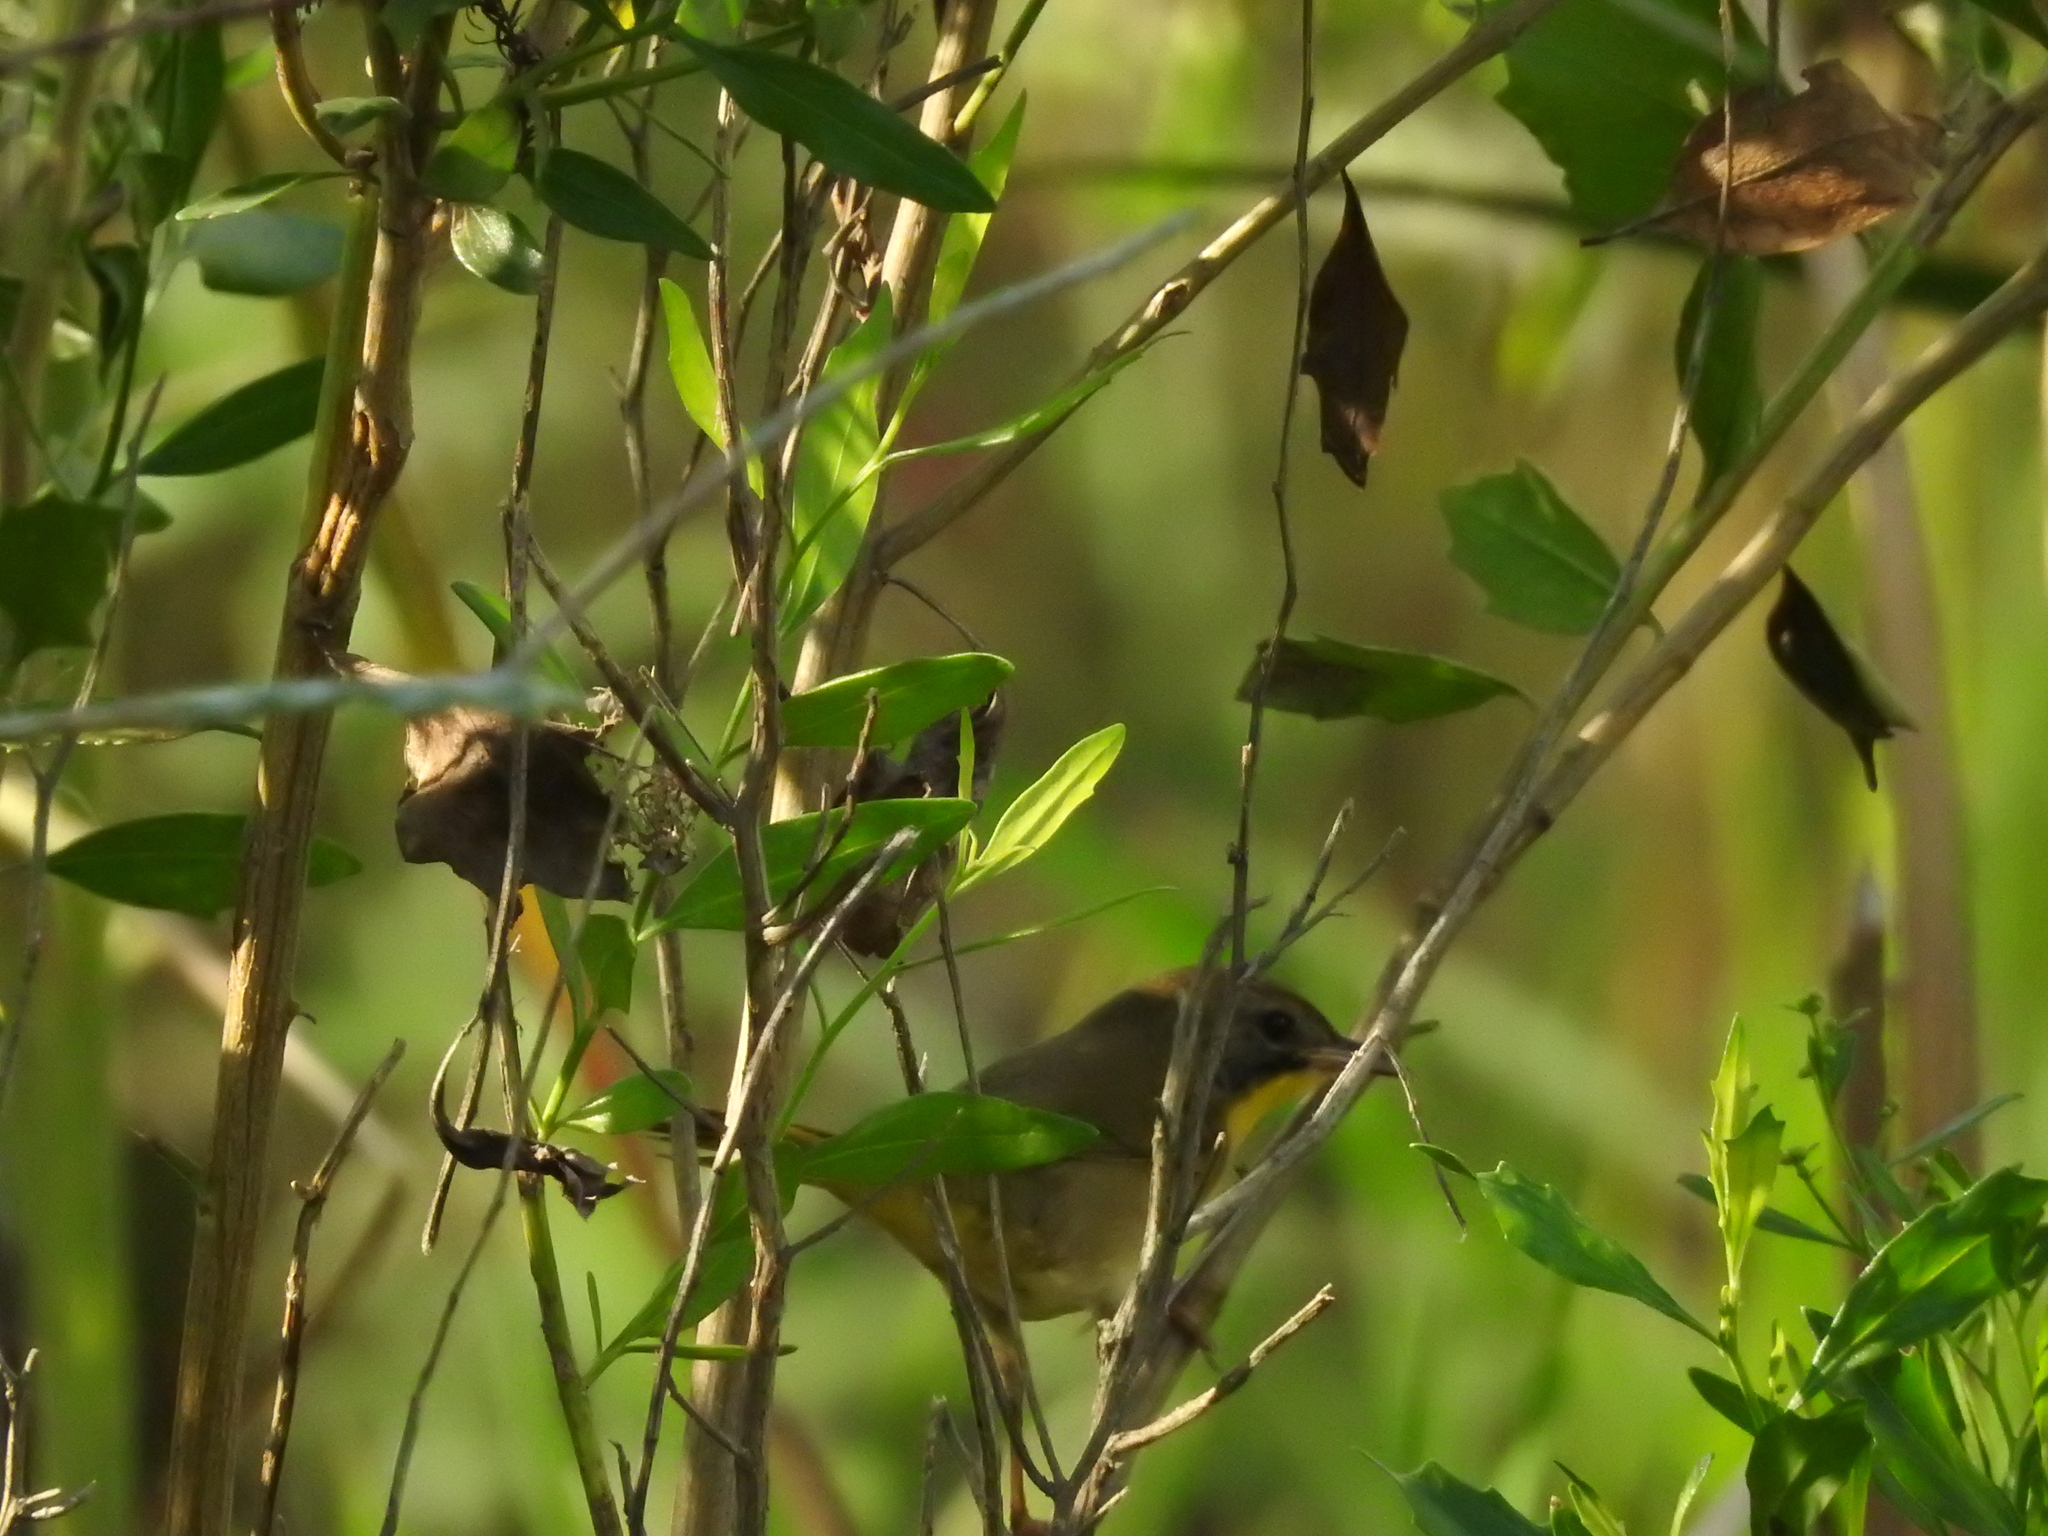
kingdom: Animalia
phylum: Chordata
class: Aves
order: Passeriformes
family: Parulidae
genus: Geothlypis
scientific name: Geothlypis trichas
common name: Common yellowthroat
